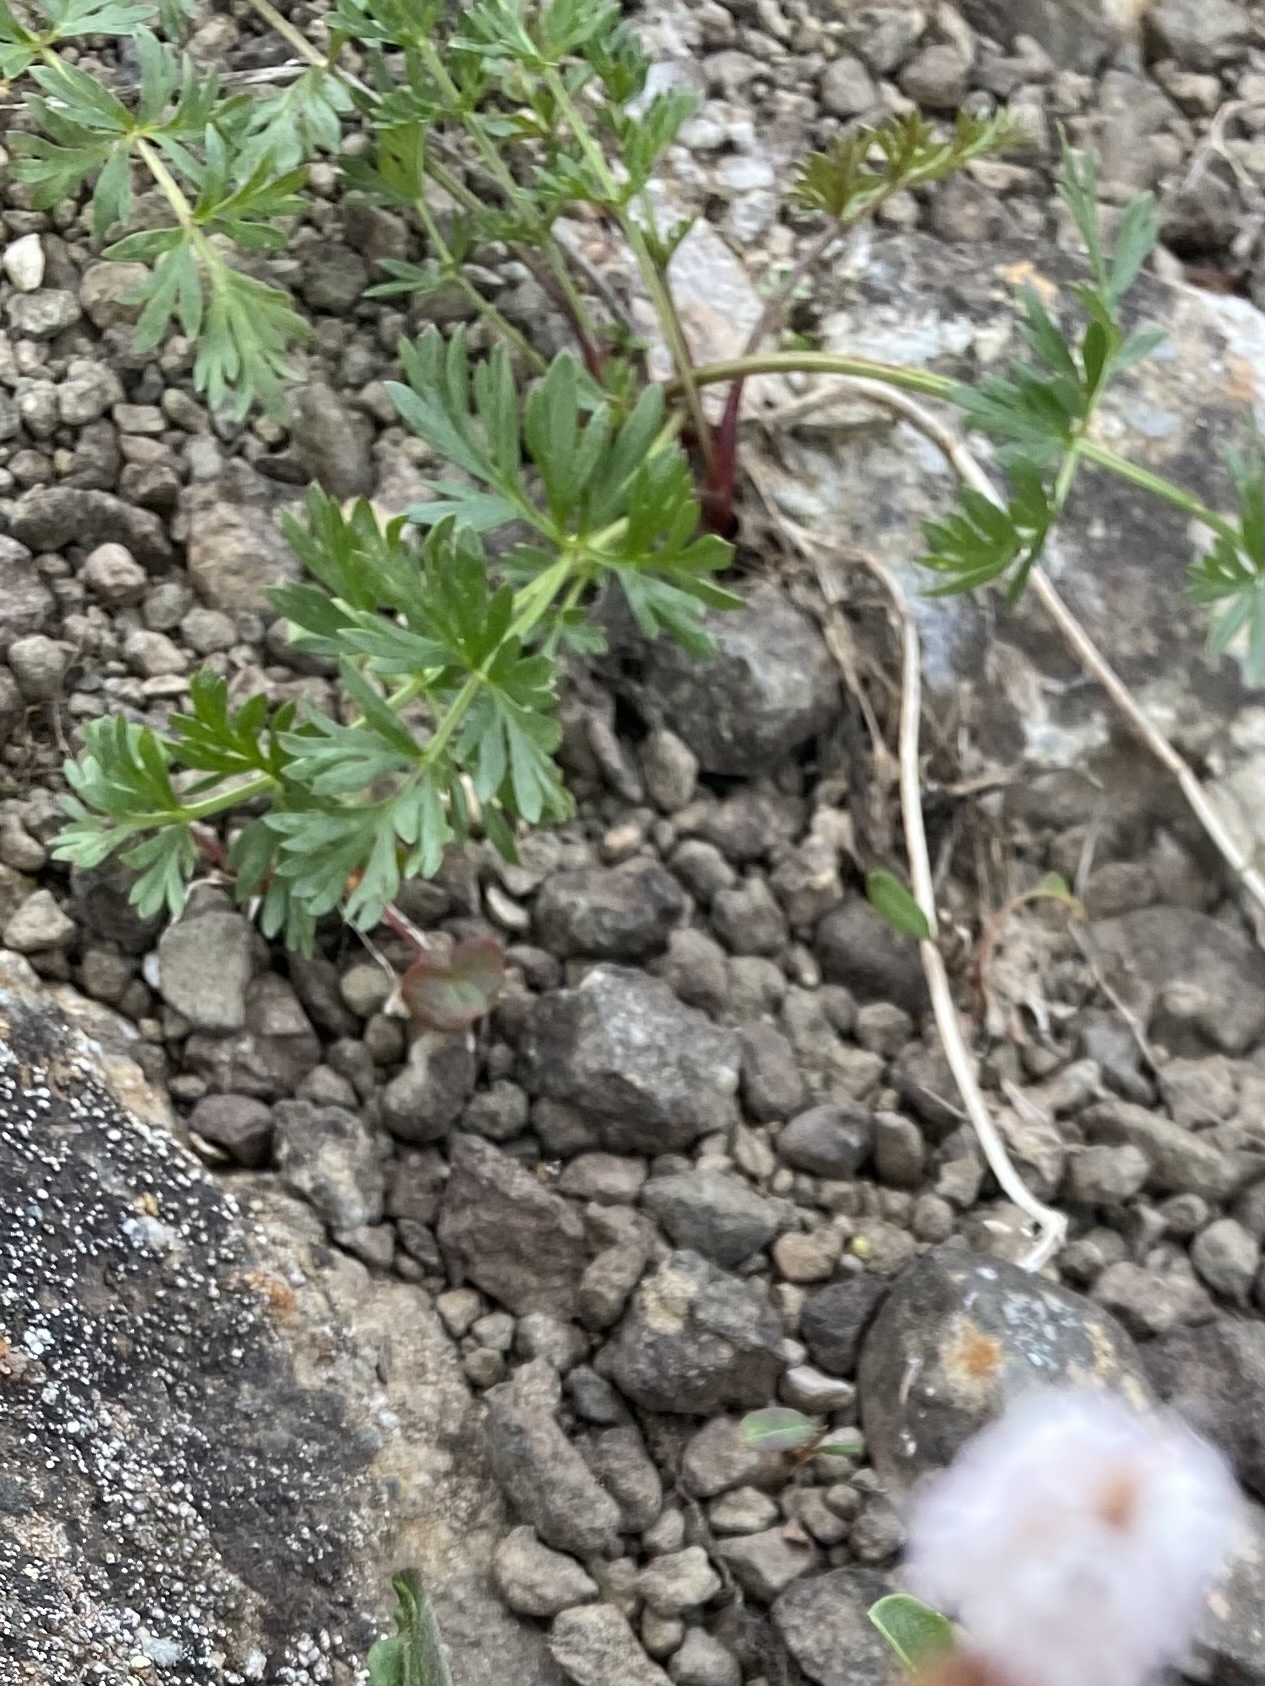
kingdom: Plantae
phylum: Tracheophyta
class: Magnoliopsida
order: Apiales
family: Apiaceae
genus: Pachypleurum
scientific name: Pachypleurum mutellinoides
